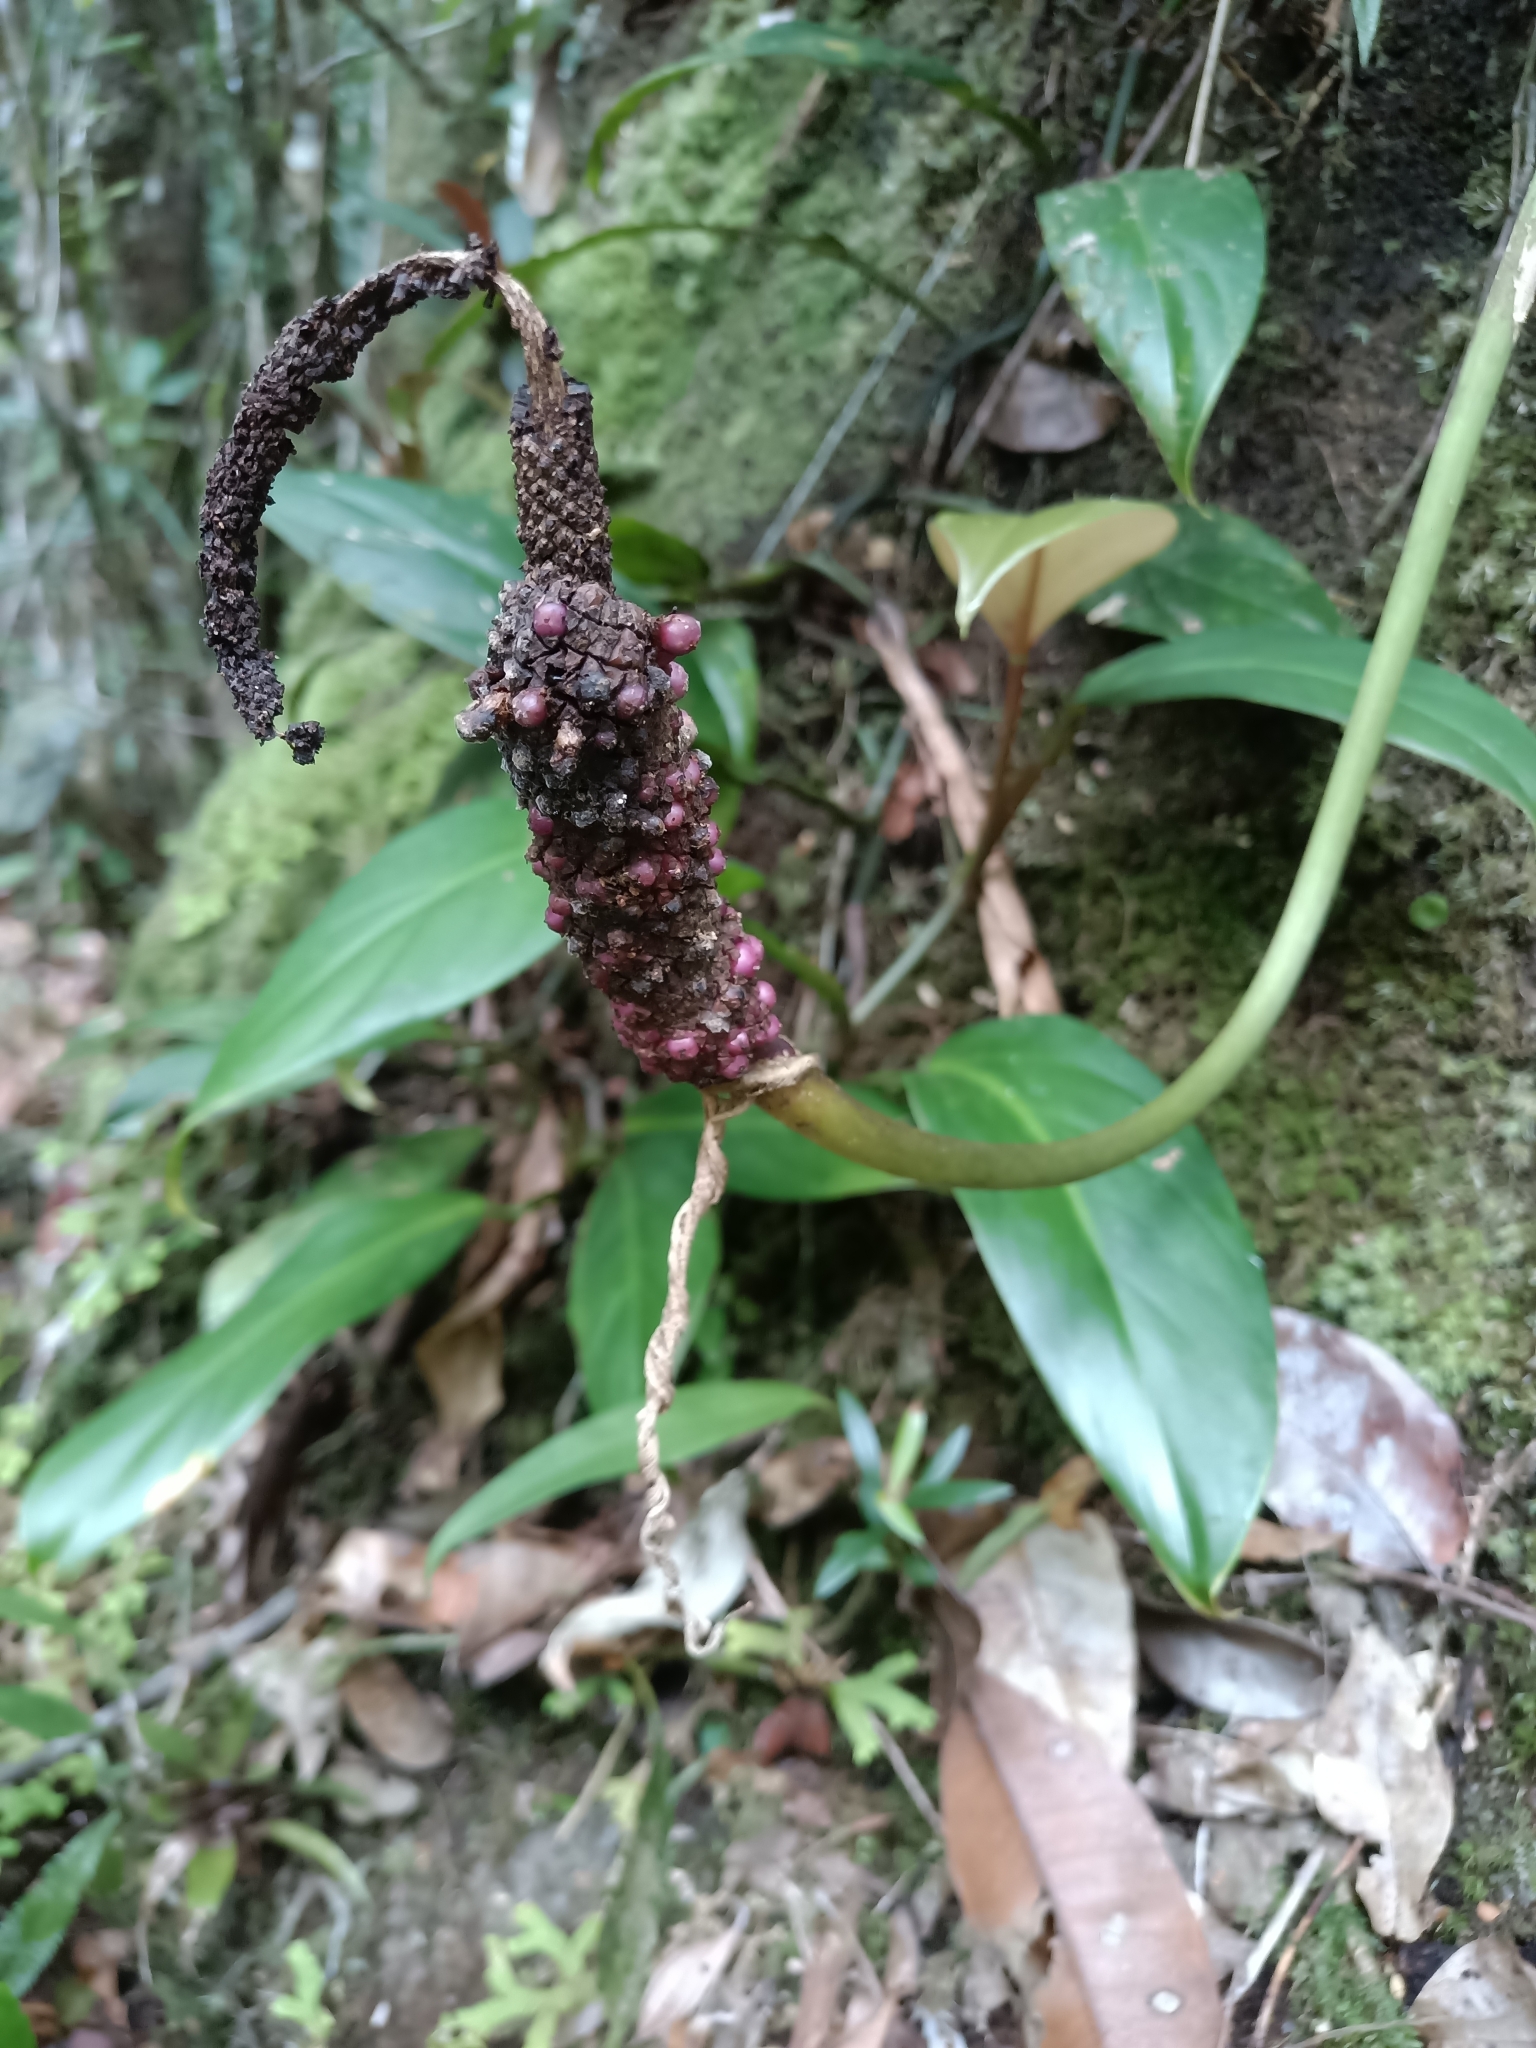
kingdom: Plantae
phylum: Tracheophyta
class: Liliopsida
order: Alismatales
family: Araceae
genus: Anthurium
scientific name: Anthurium jenmanii
